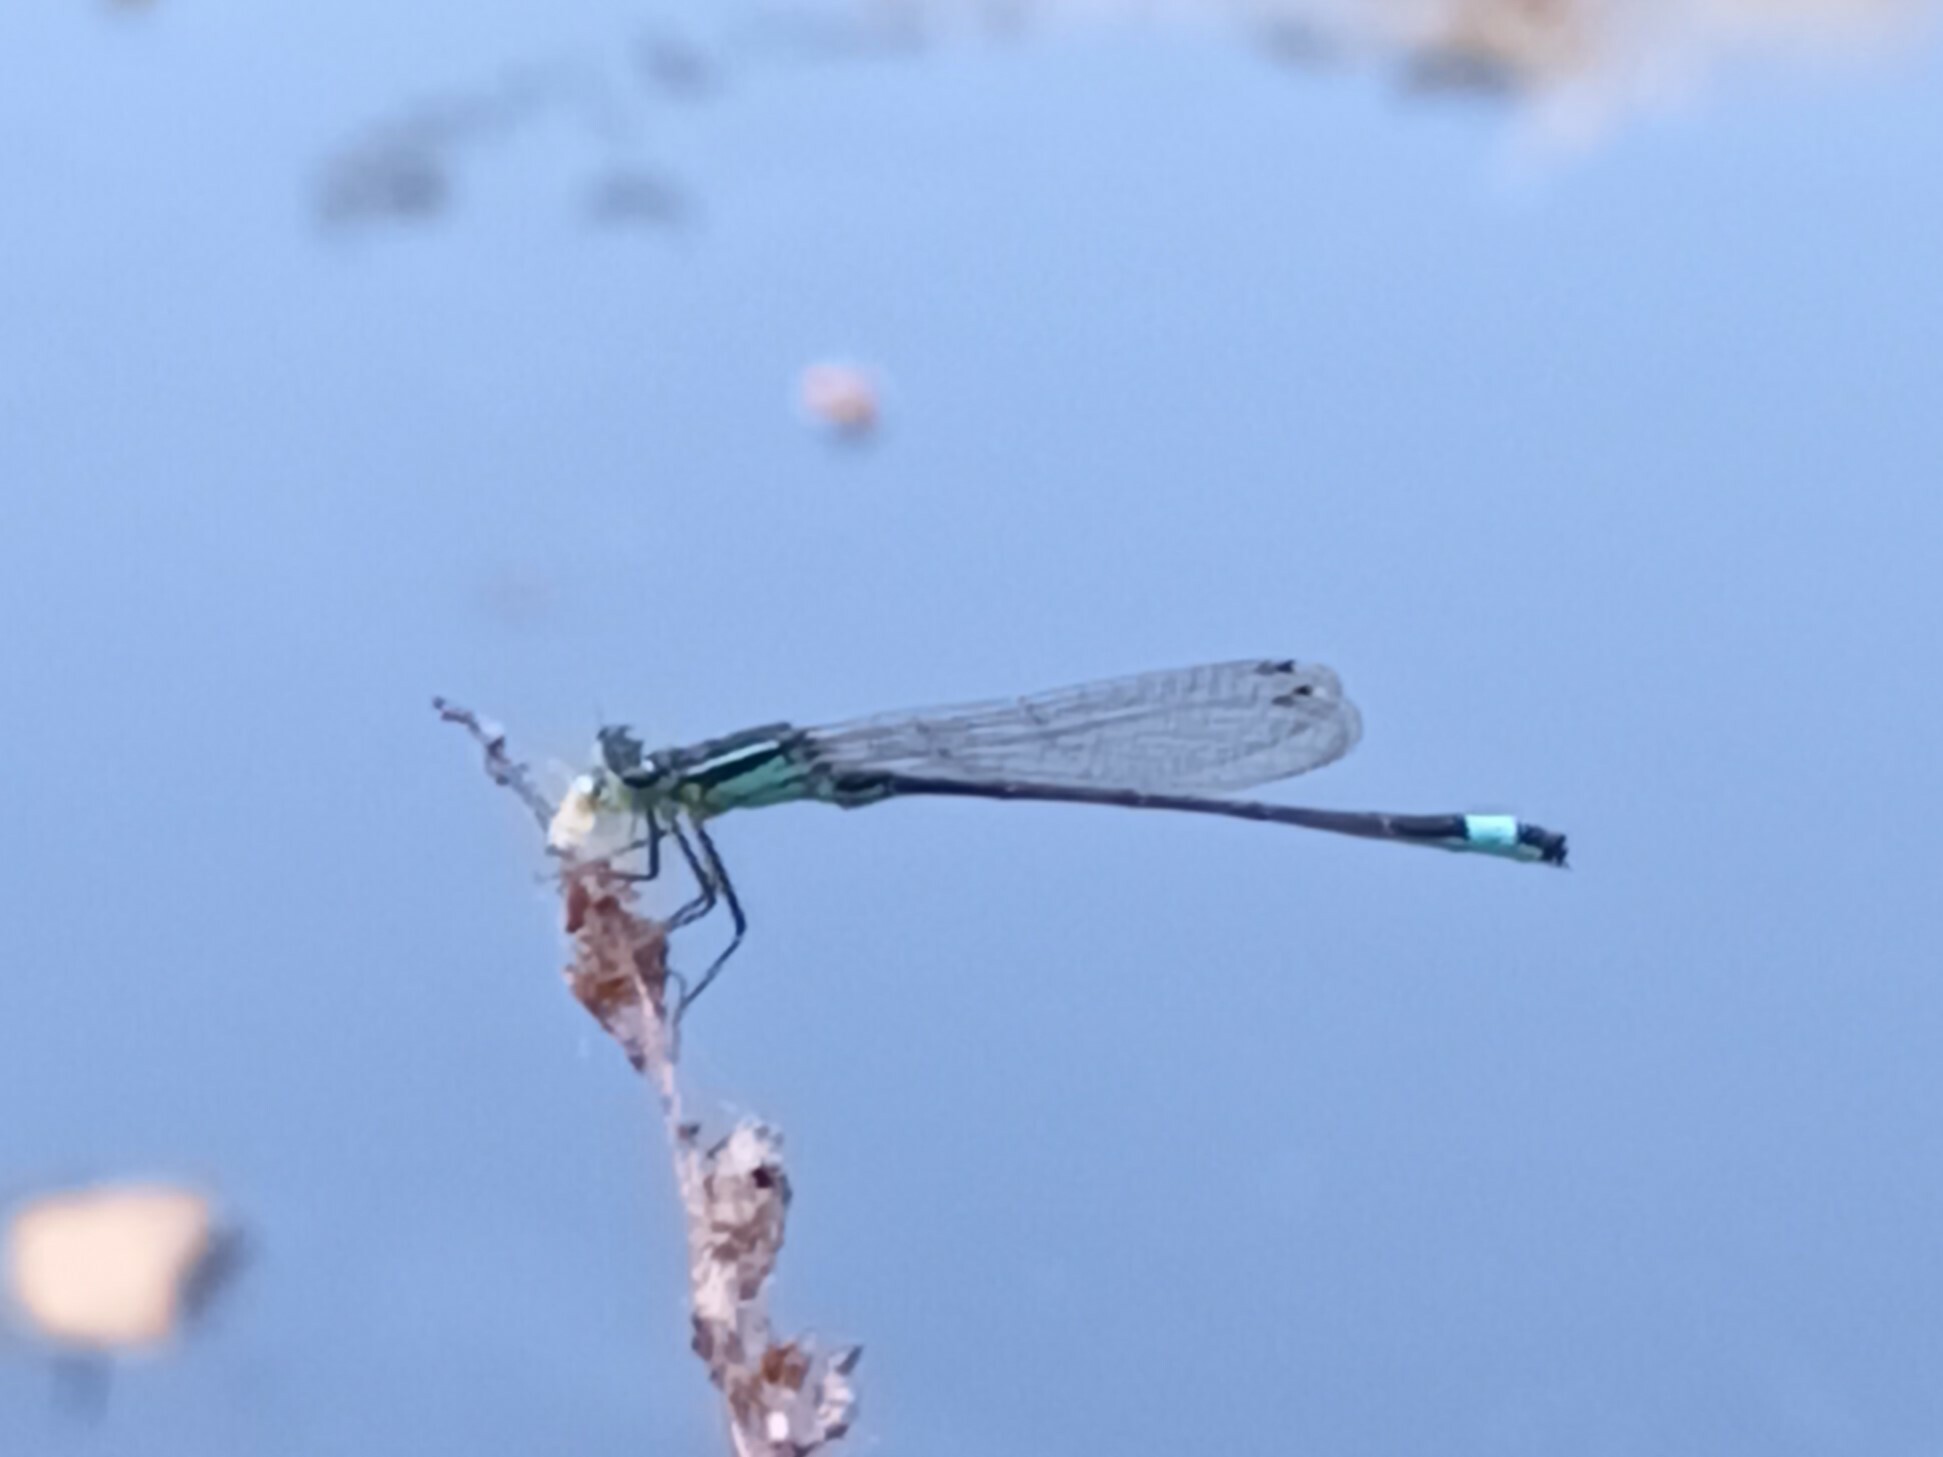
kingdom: Animalia
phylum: Arthropoda
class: Insecta
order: Odonata
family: Coenagrionidae
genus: Ischnura
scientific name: Ischnura elegans
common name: Blue-tailed damselfly
